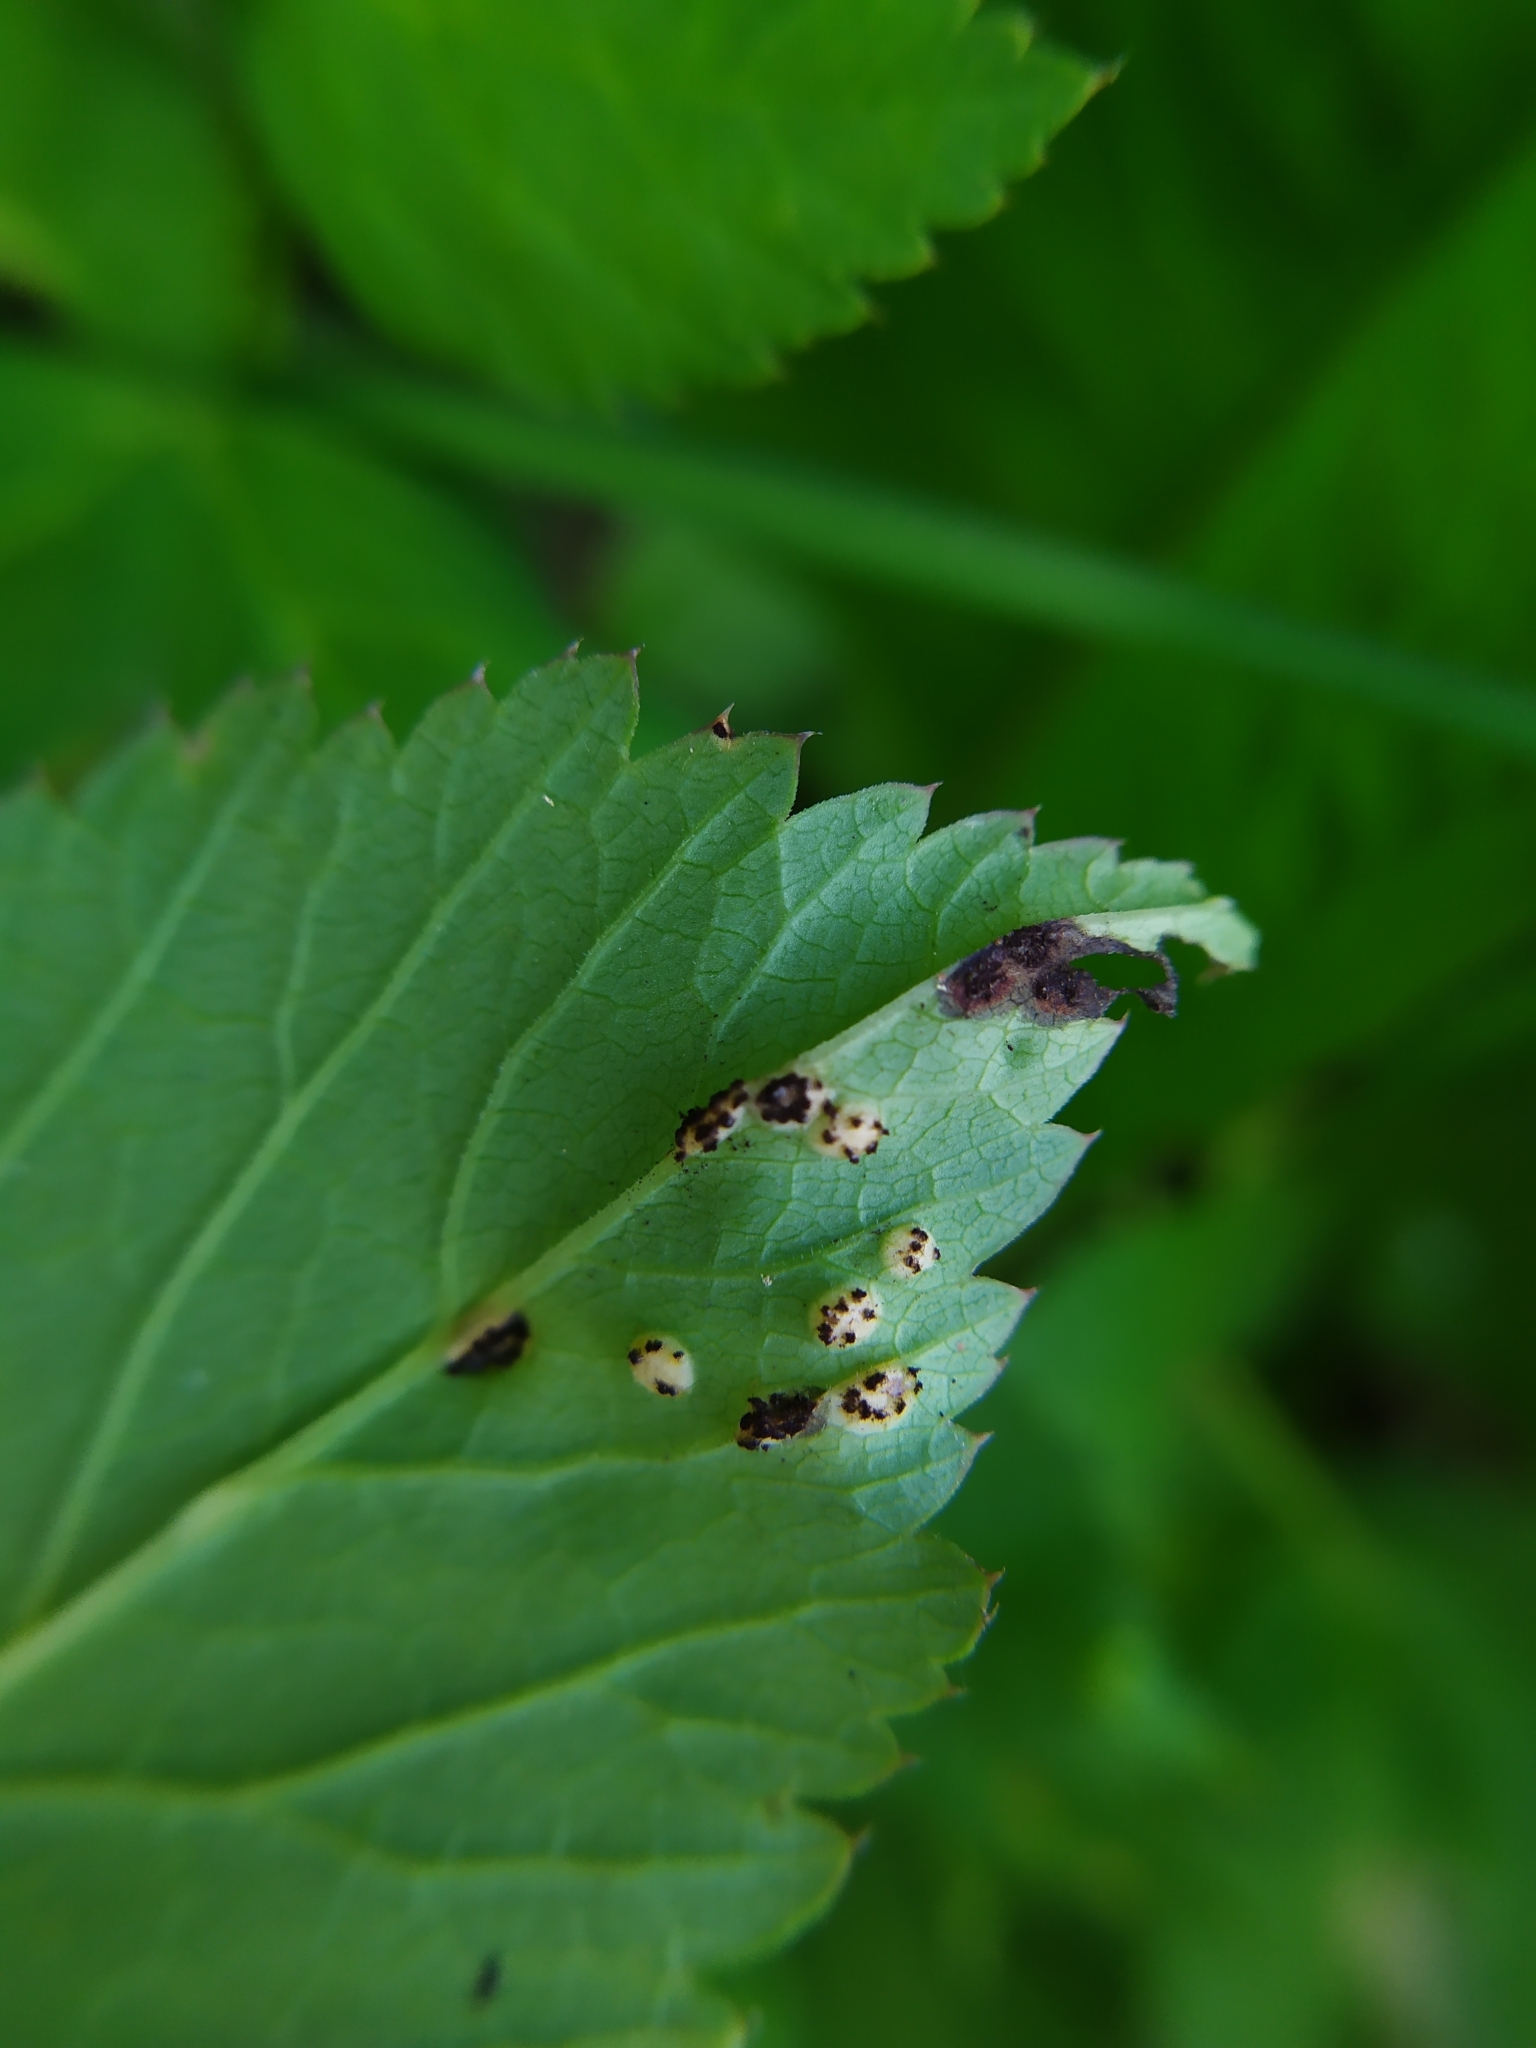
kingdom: Fungi
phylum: Basidiomycota
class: Pucciniomycetes
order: Pucciniales
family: Pucciniaceae
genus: Puccinia
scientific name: Puccinia aegopodii
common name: Ground elder rust
